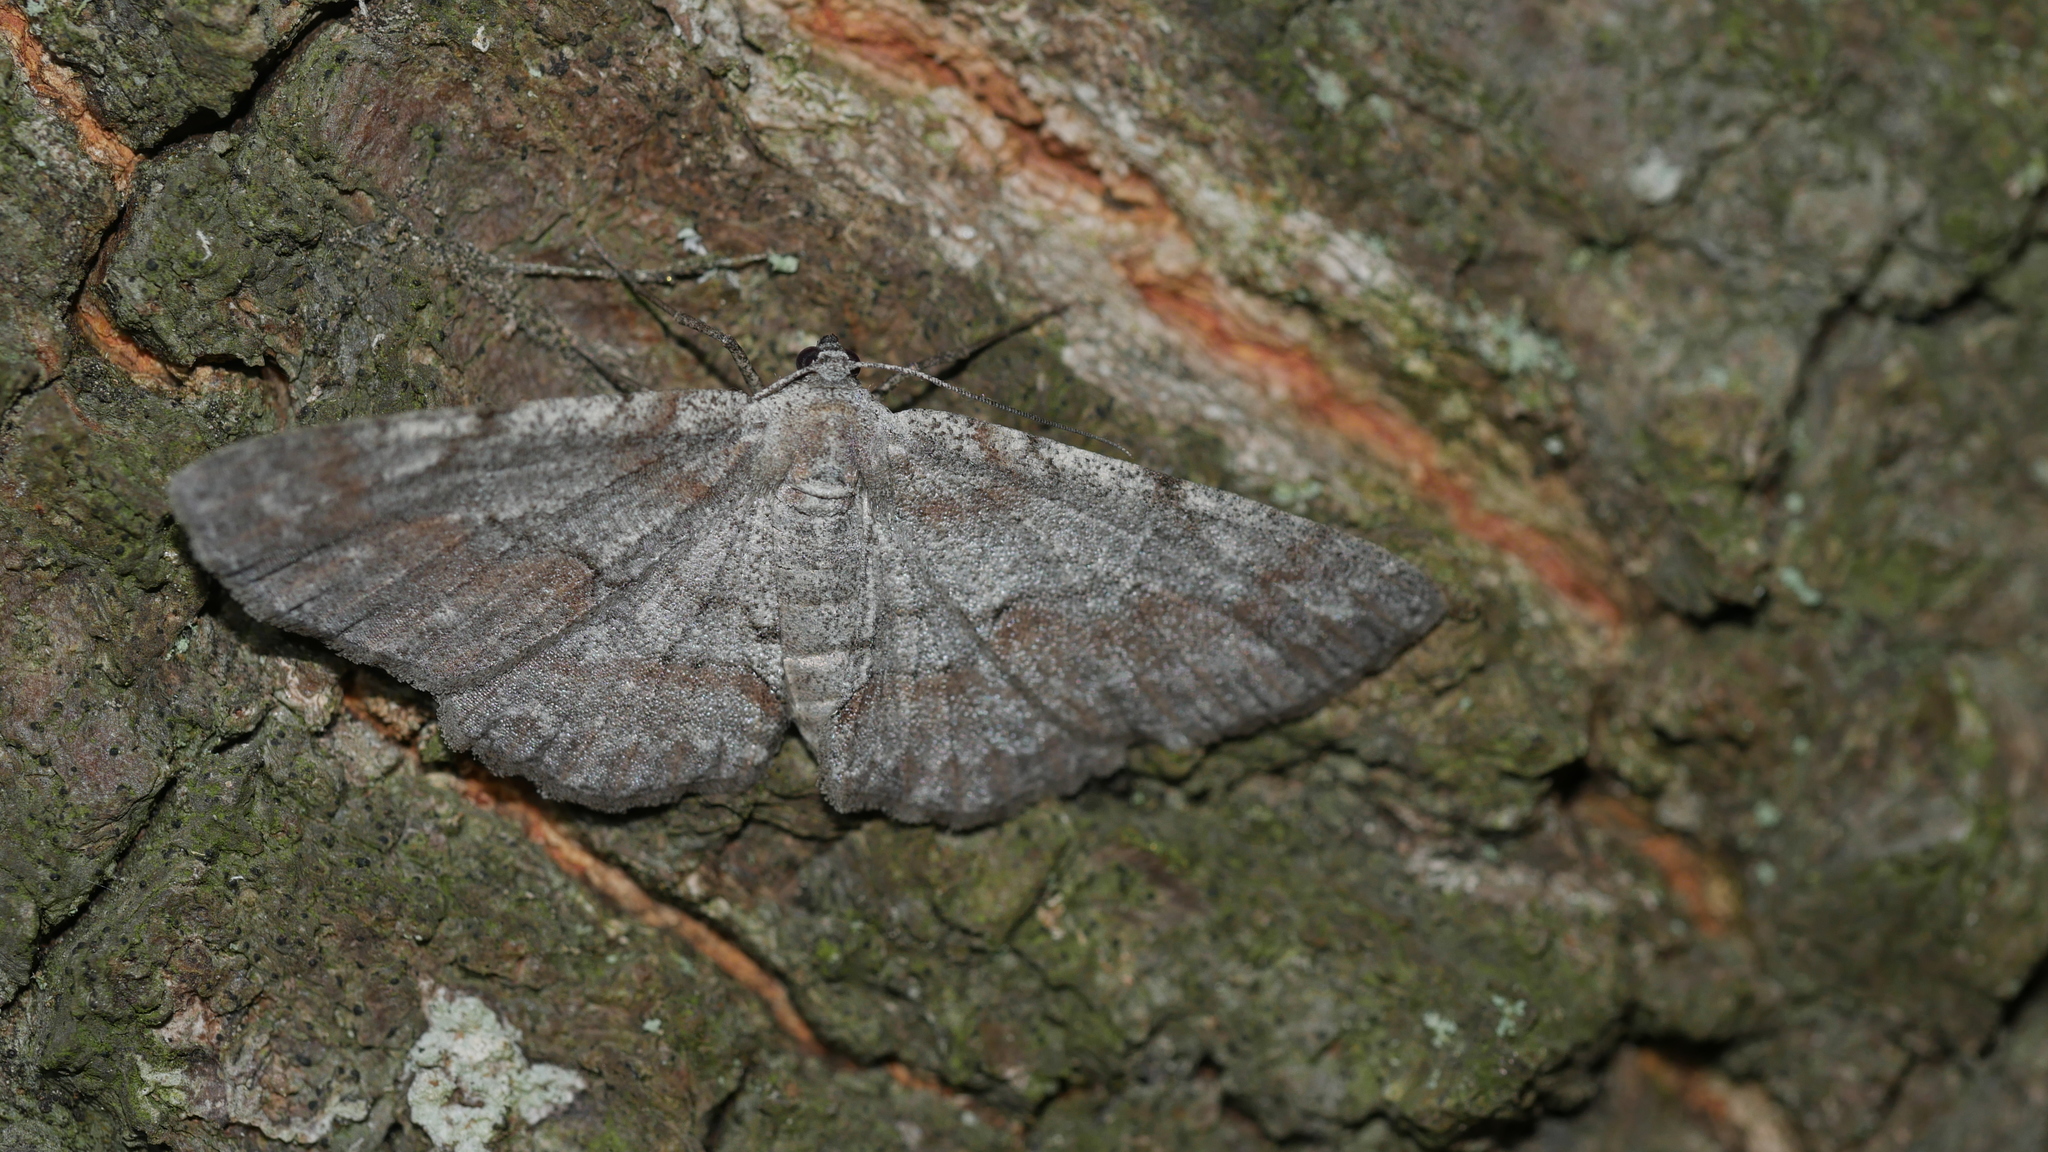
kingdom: Animalia
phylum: Arthropoda
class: Insecta
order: Lepidoptera
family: Geometridae
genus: Iridopsis
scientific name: Iridopsis vellivolata
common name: Large purplish gray
